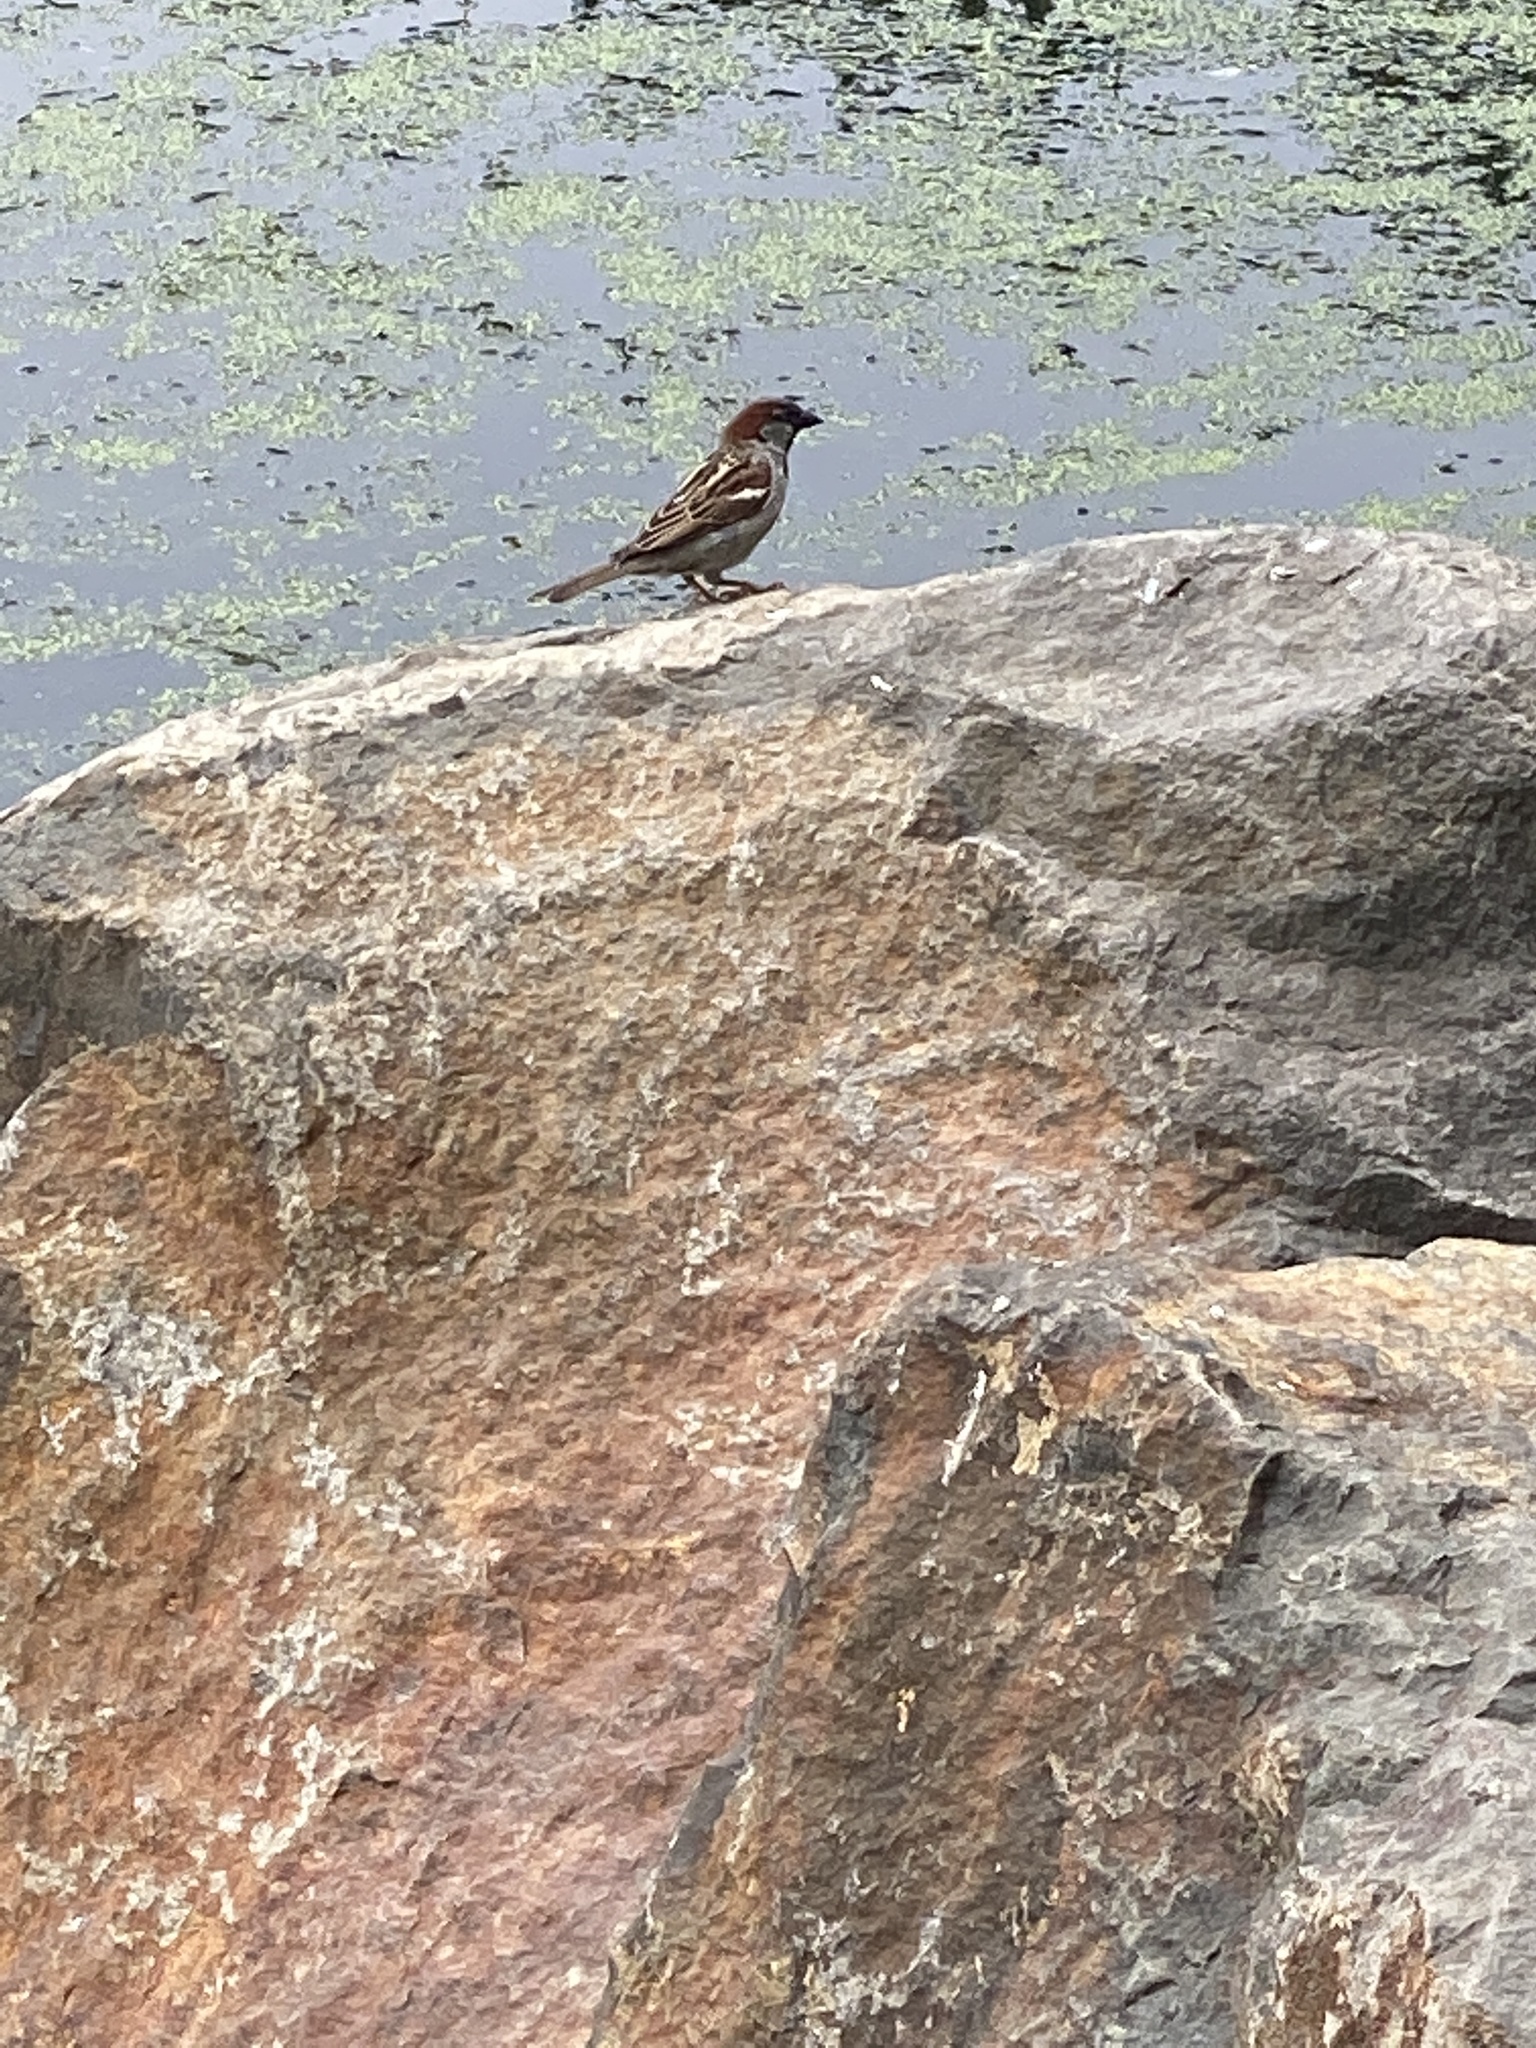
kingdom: Animalia
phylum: Chordata
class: Aves
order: Passeriformes
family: Passeridae
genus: Passer
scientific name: Passer domesticus
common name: House sparrow
